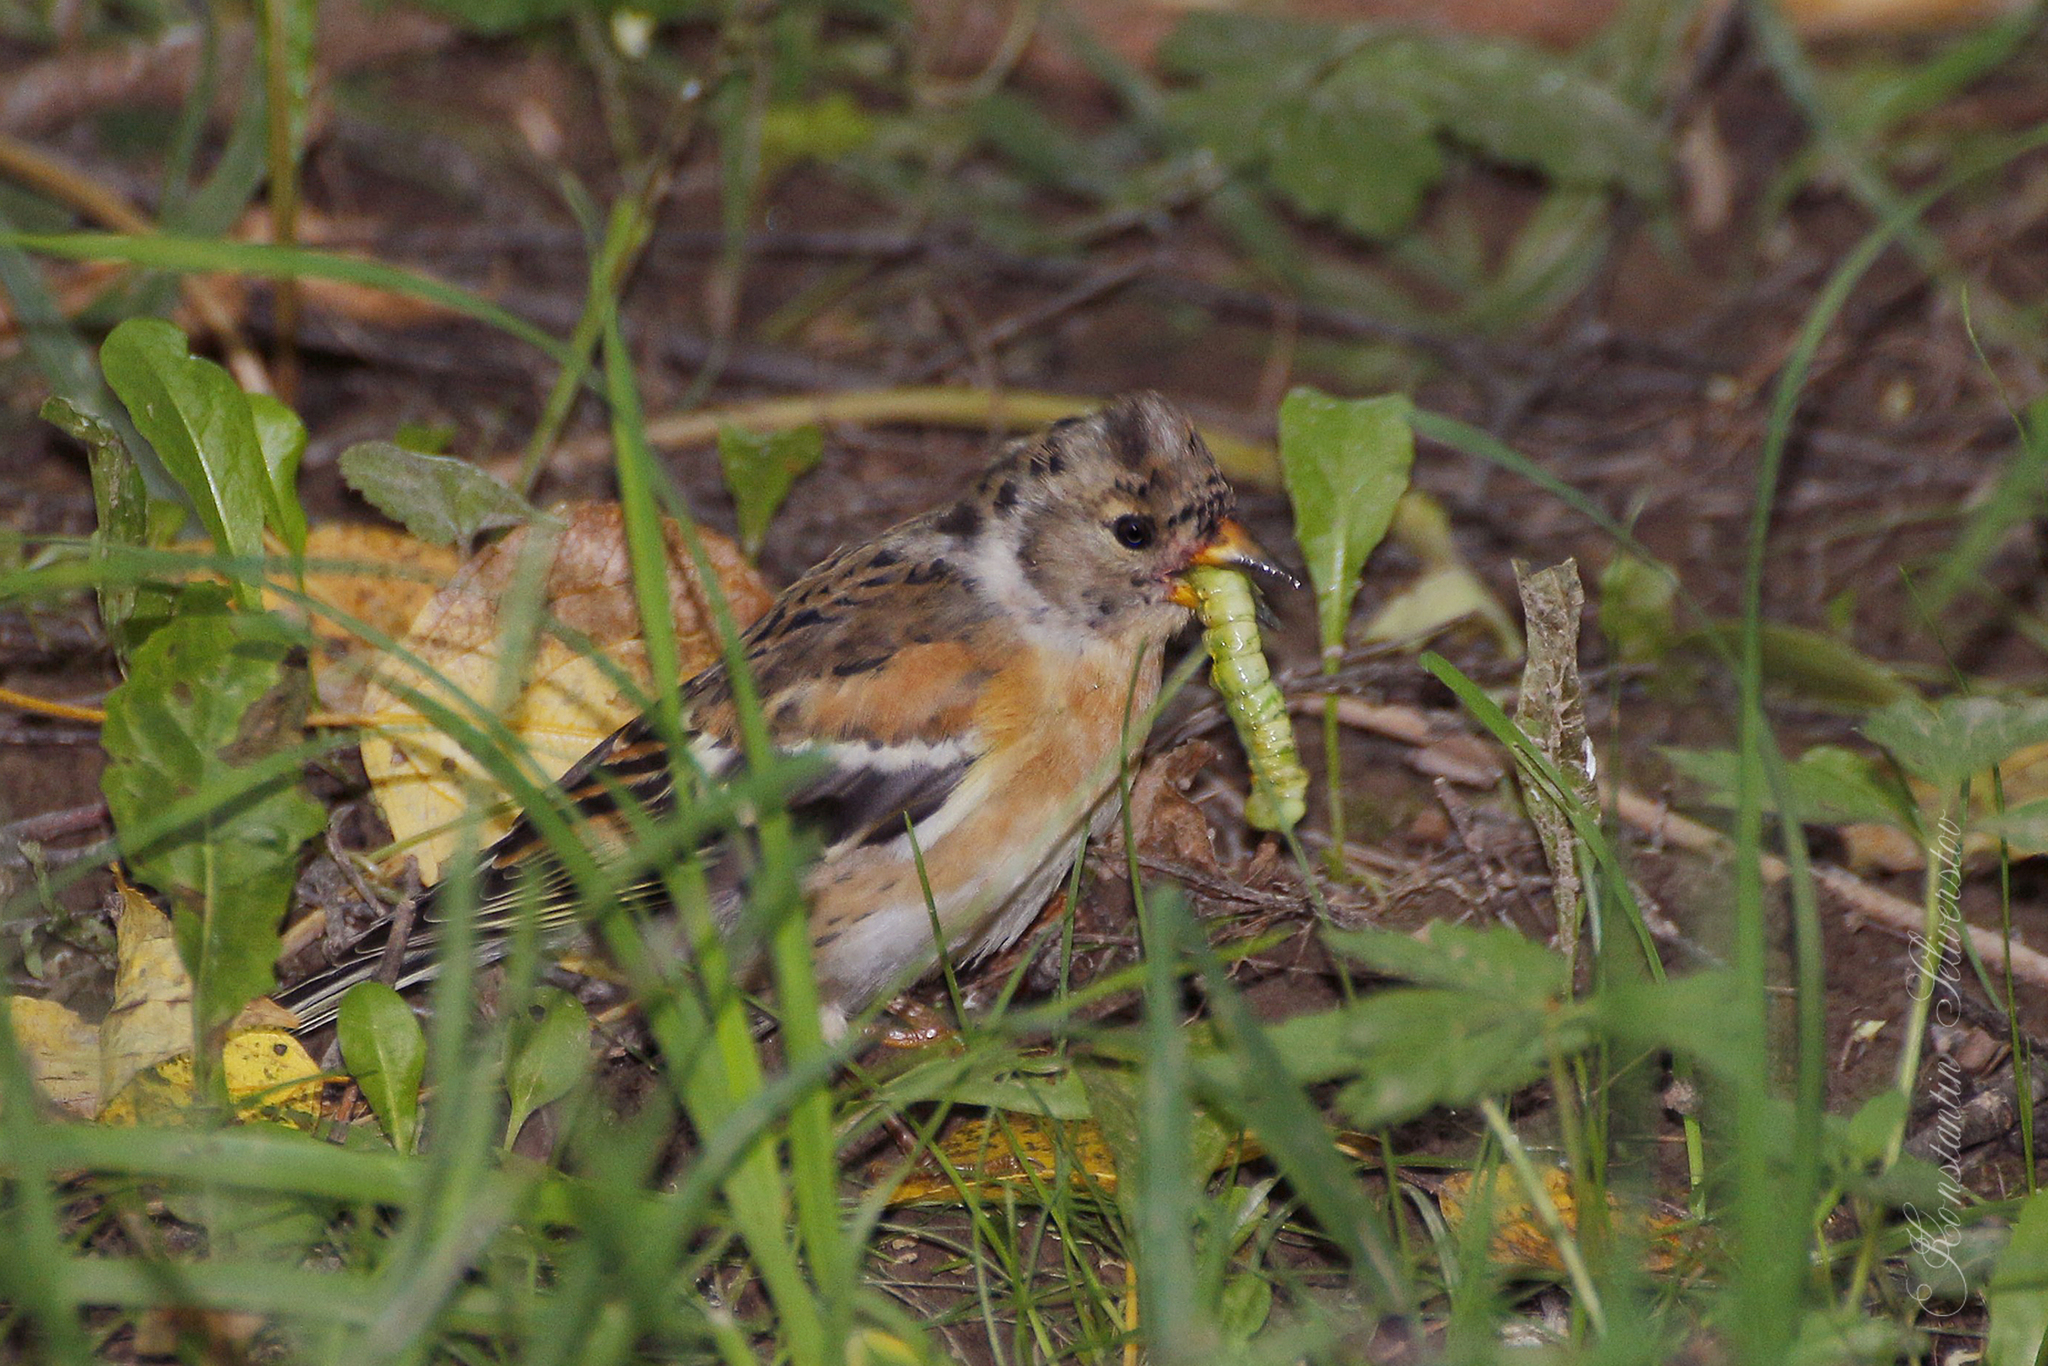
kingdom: Animalia
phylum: Chordata
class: Aves
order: Passeriformes
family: Fringillidae
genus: Fringilla
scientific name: Fringilla montifringilla
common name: Brambling
